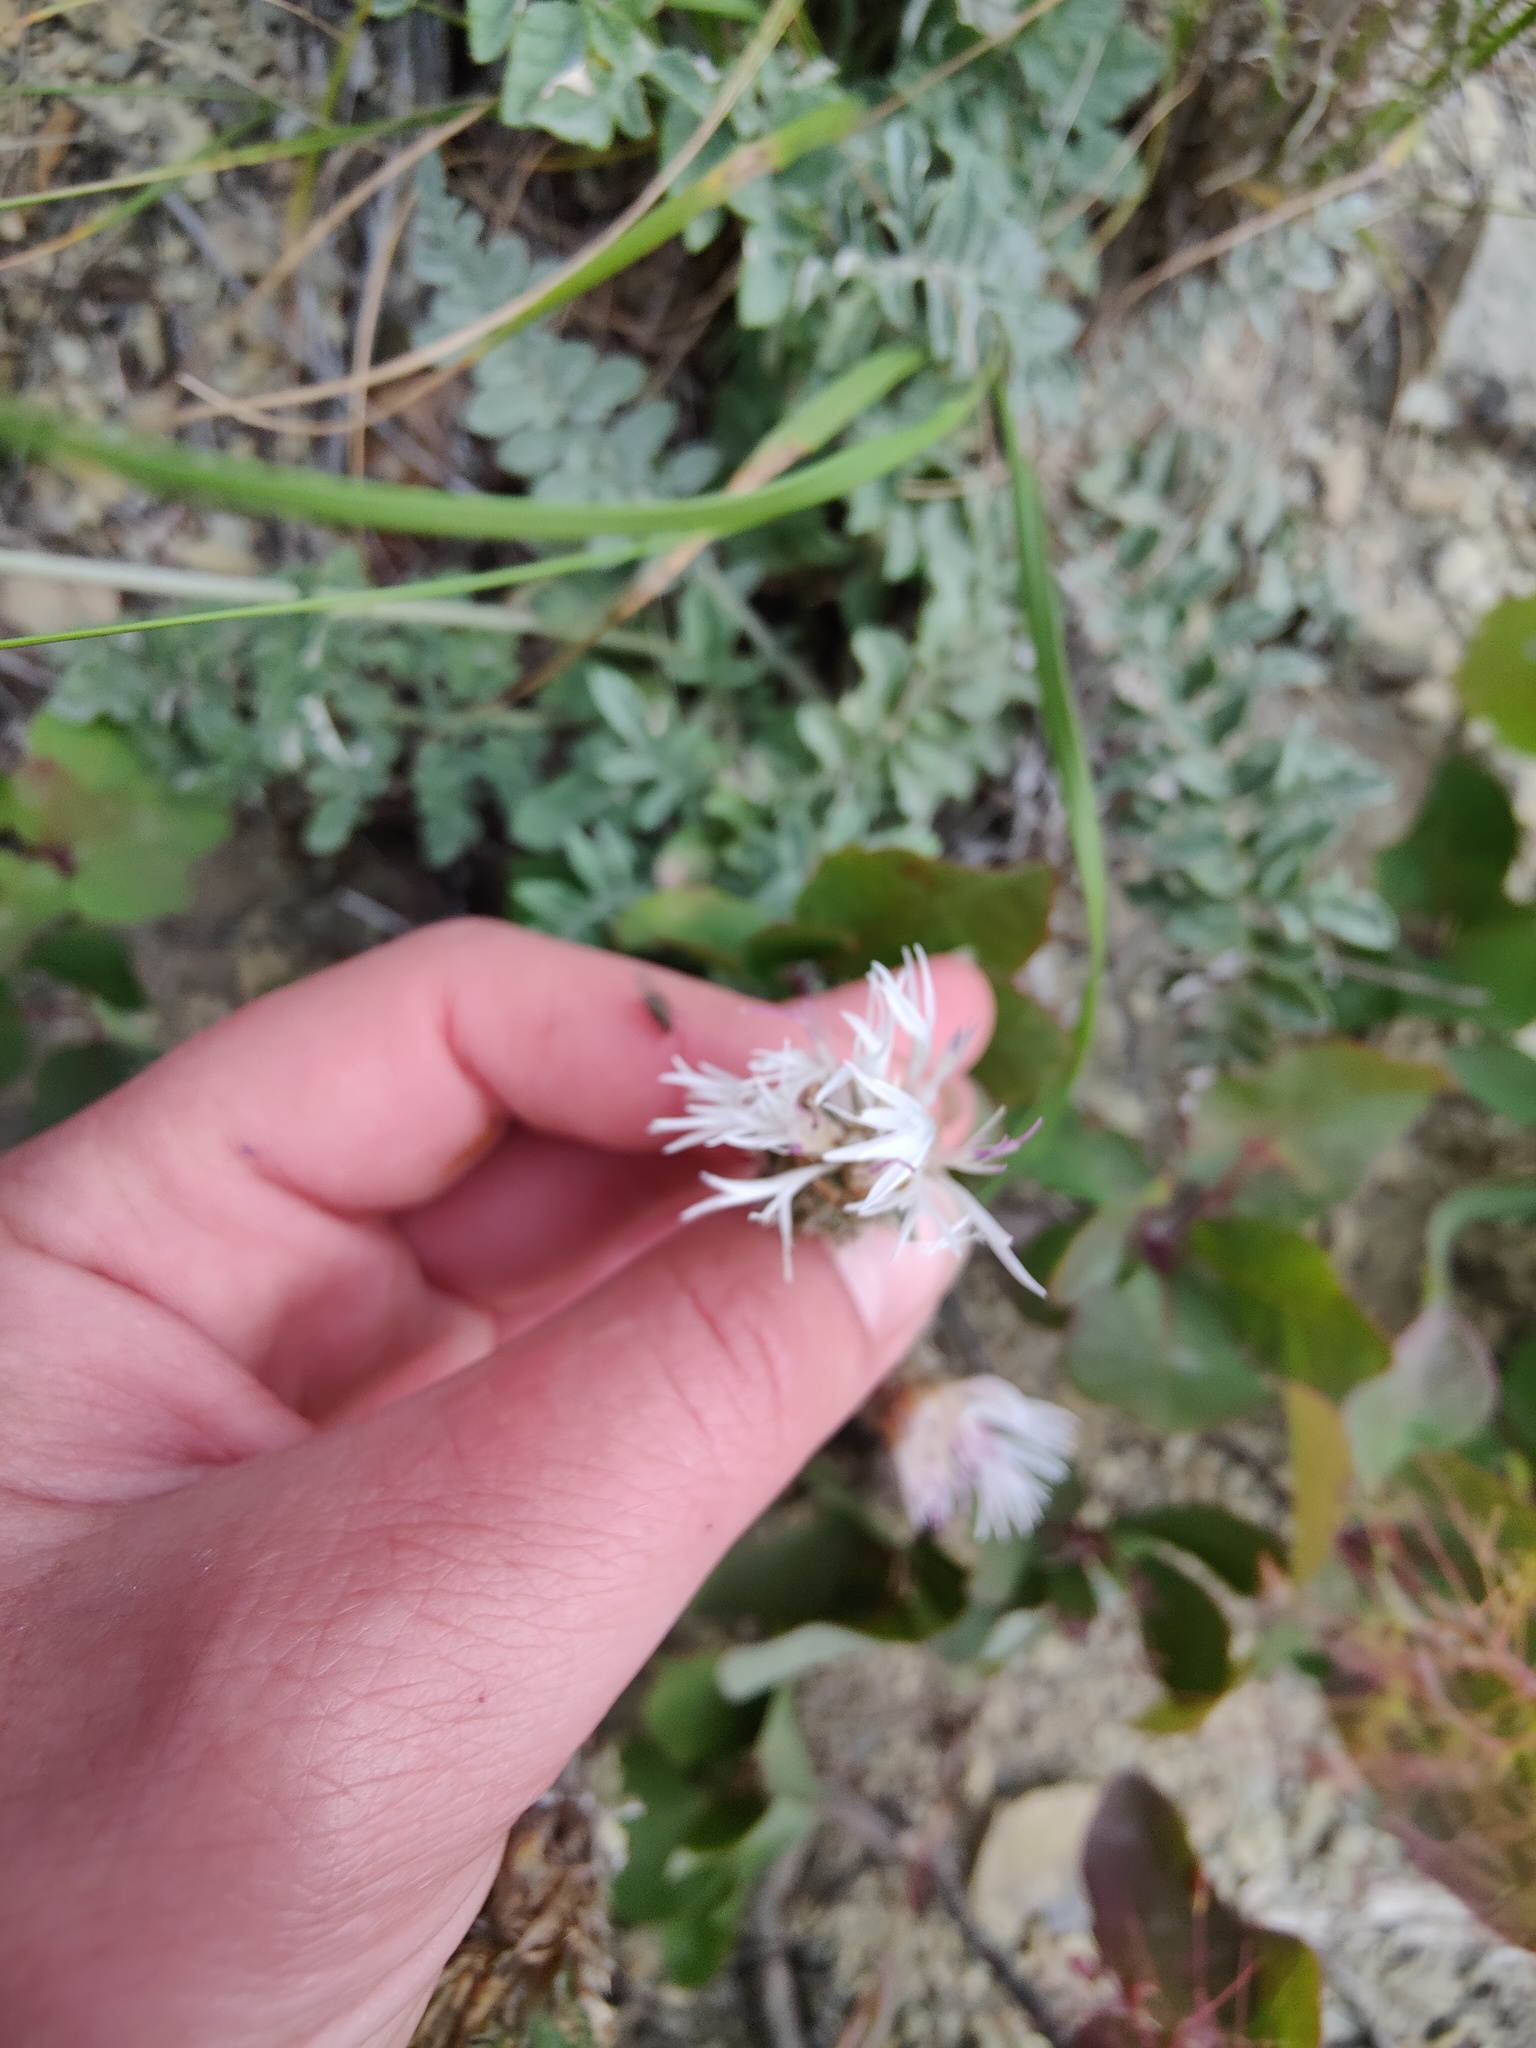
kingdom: Plantae
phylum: Tracheophyta
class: Magnoliopsida
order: Asterales
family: Asteraceae
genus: Psephellus
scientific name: Psephellus declinatus
